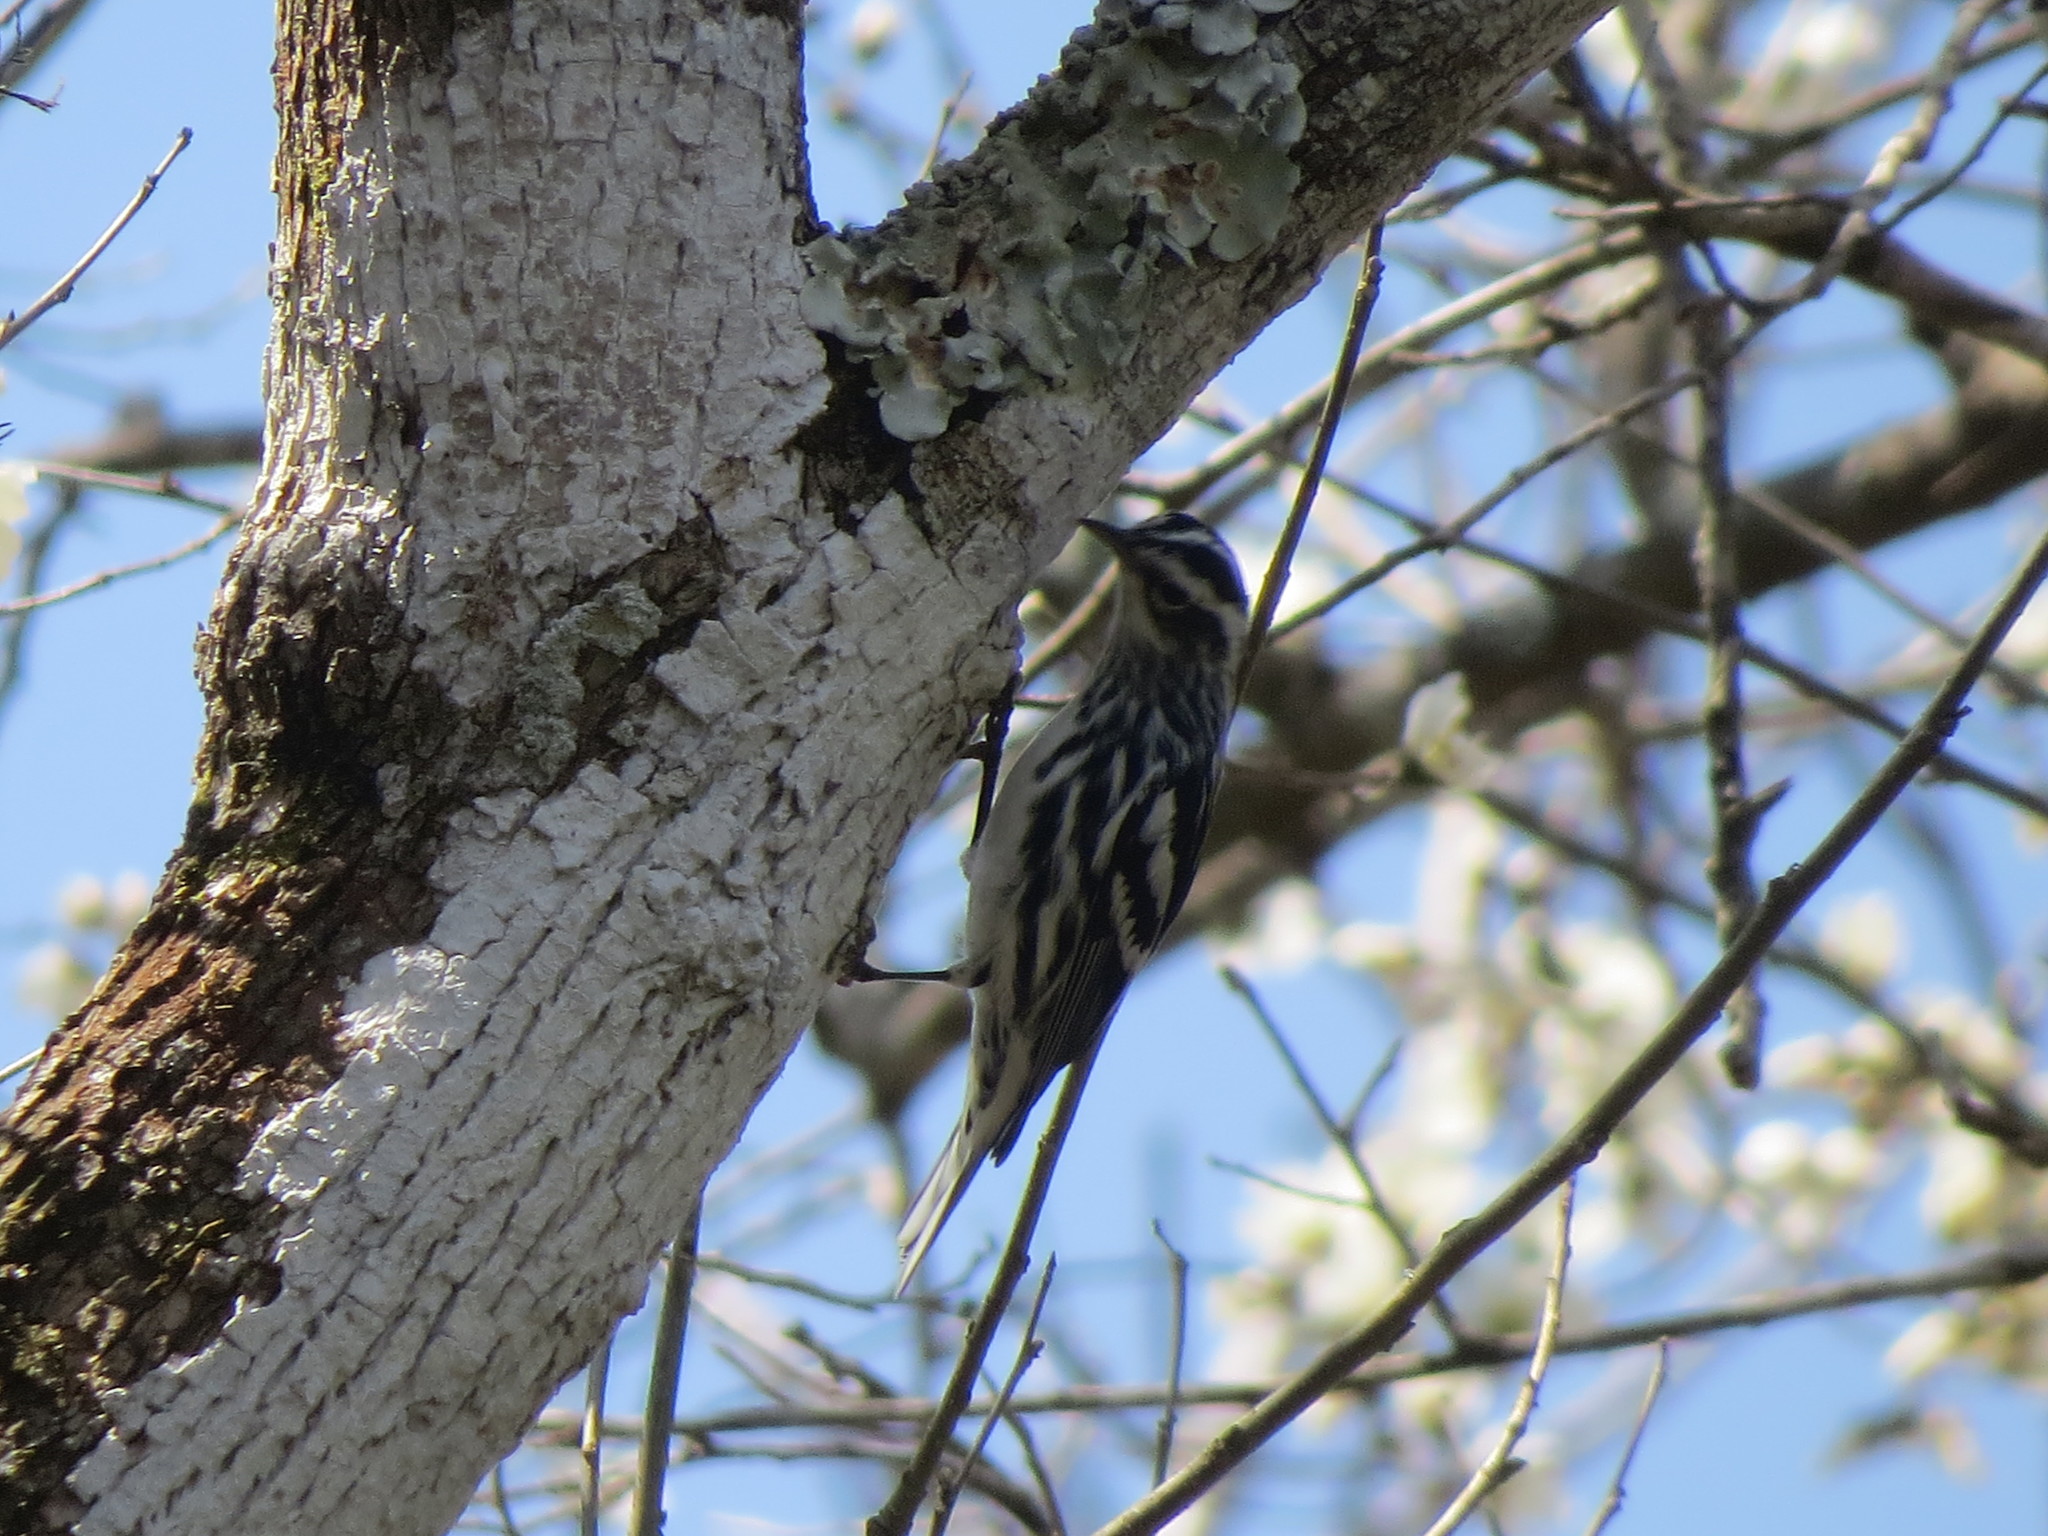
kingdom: Animalia
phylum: Chordata
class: Aves
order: Passeriformes
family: Parulidae
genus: Mniotilta
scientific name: Mniotilta varia
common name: Black-and-white warbler
